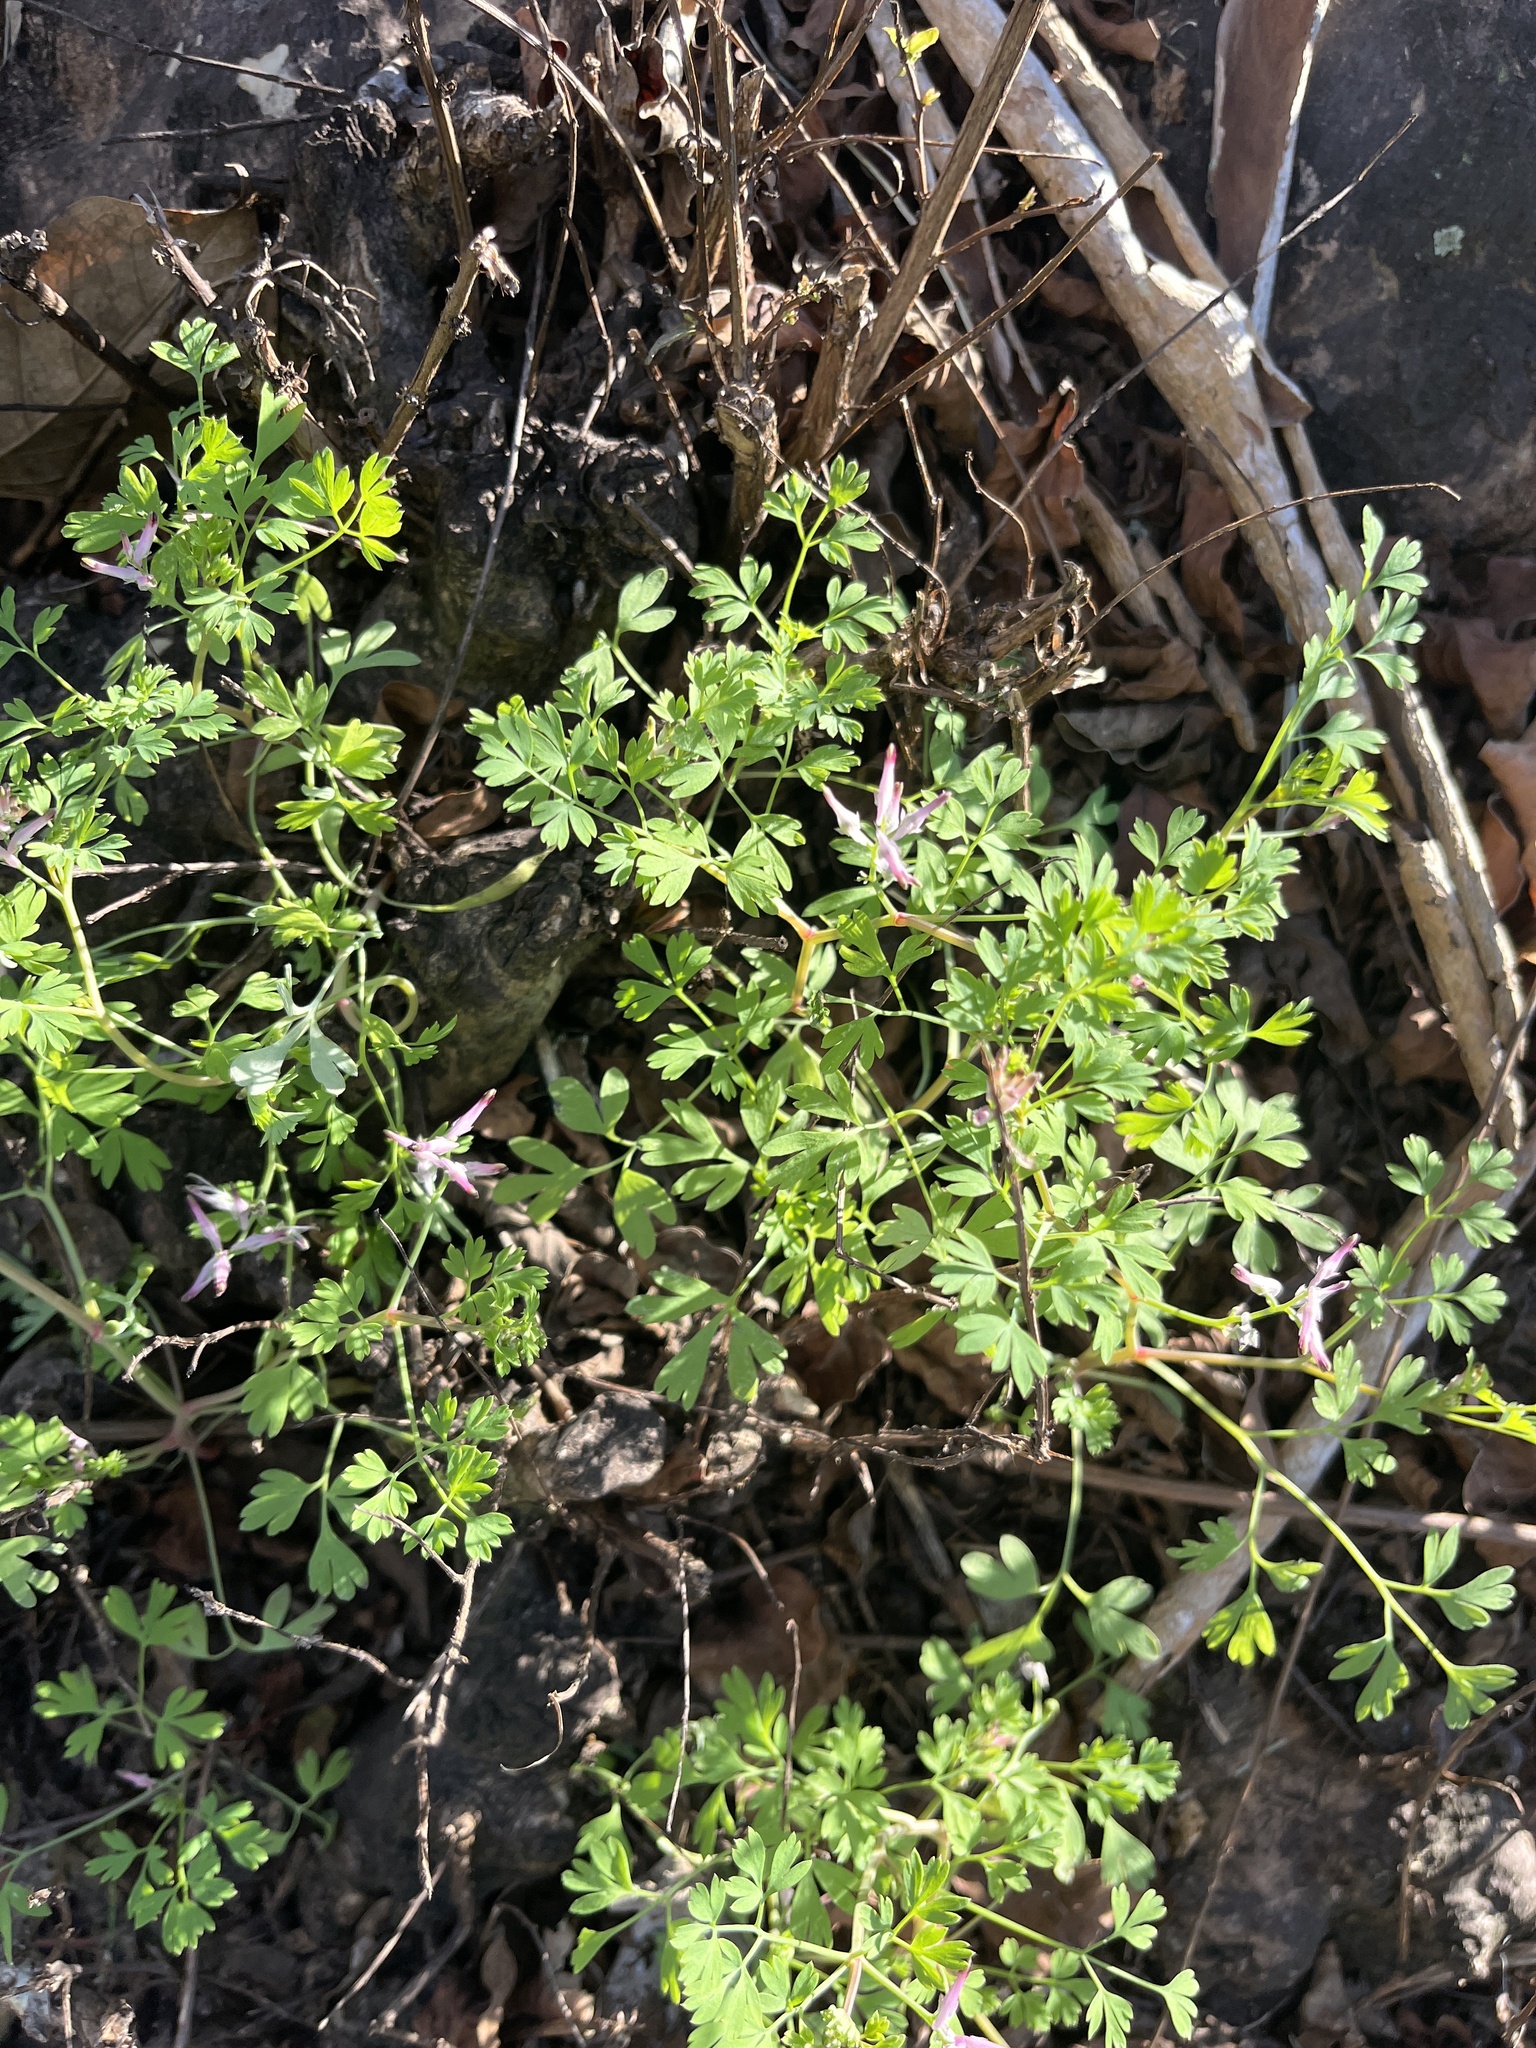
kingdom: Plantae
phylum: Tracheophyta
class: Magnoliopsida
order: Ranunculales
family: Papaveraceae
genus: Fumaria
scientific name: Fumaria muralis
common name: Common ramping-fumitory
